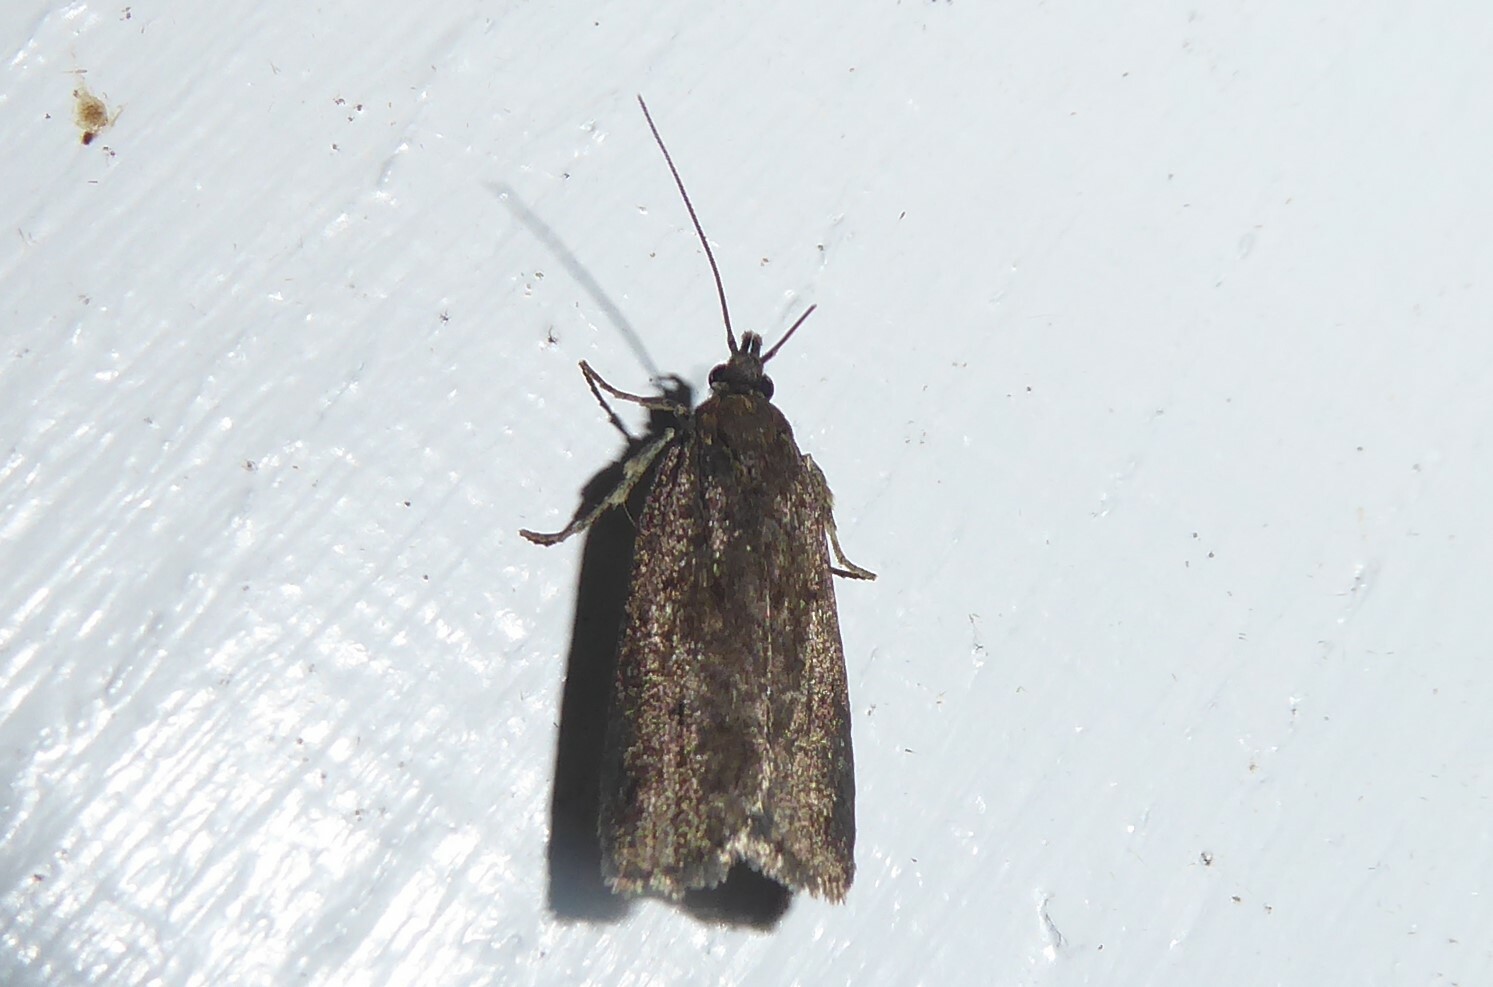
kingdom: Animalia
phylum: Arthropoda
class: Insecta
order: Lepidoptera
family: Depressariidae
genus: Phaeosaces
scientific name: Phaeosaces apocrypta
